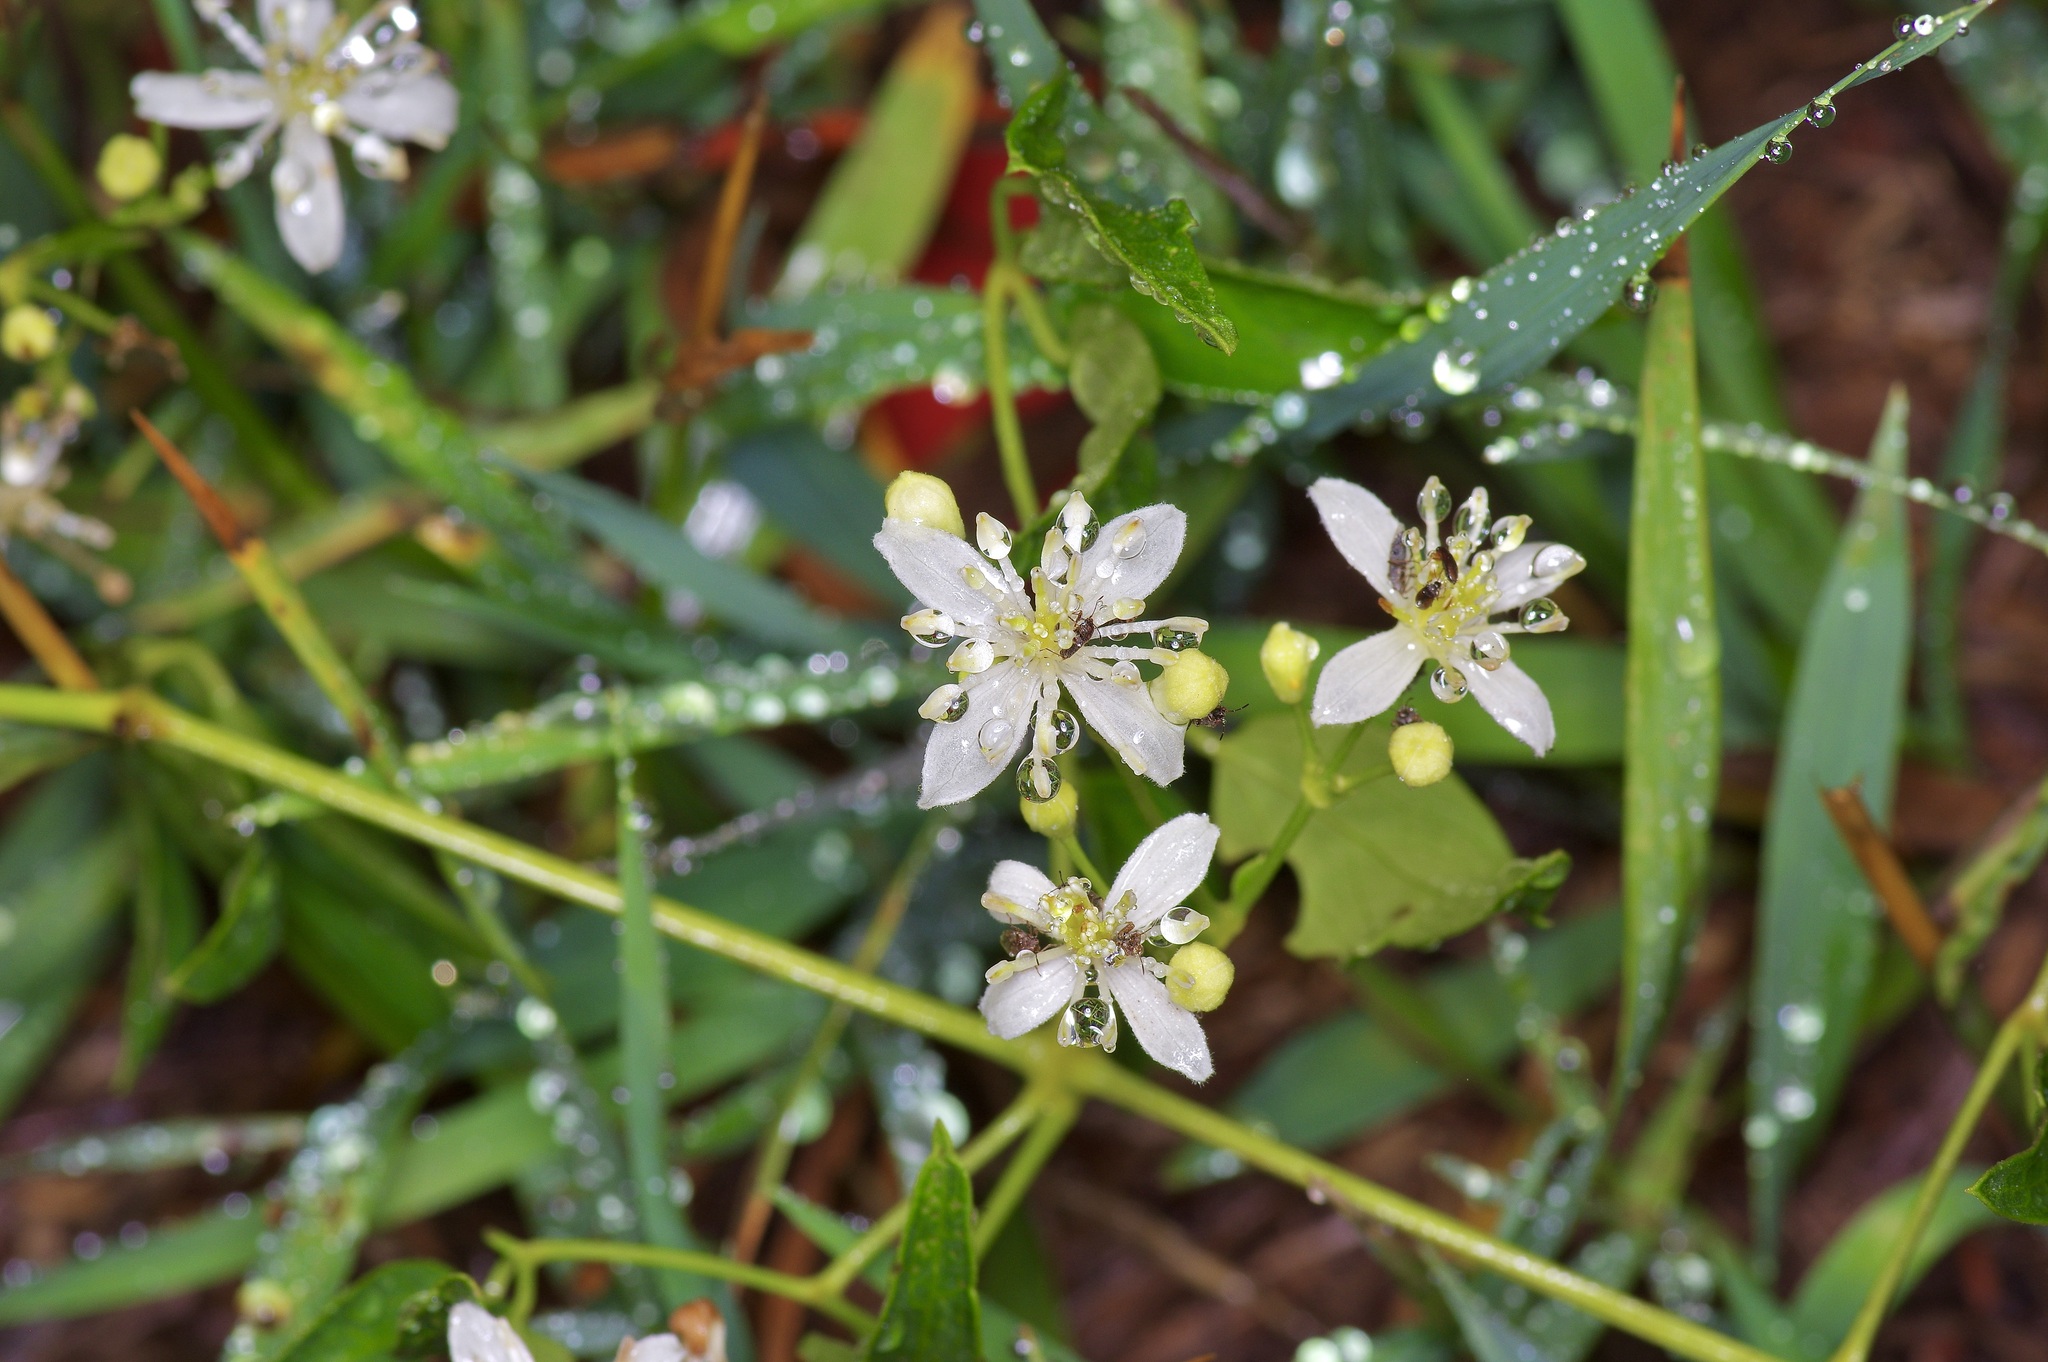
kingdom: Plantae
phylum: Tracheophyta
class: Magnoliopsida
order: Ranunculales
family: Ranunculaceae
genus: Clematis
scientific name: Clematis ligusticifolia
